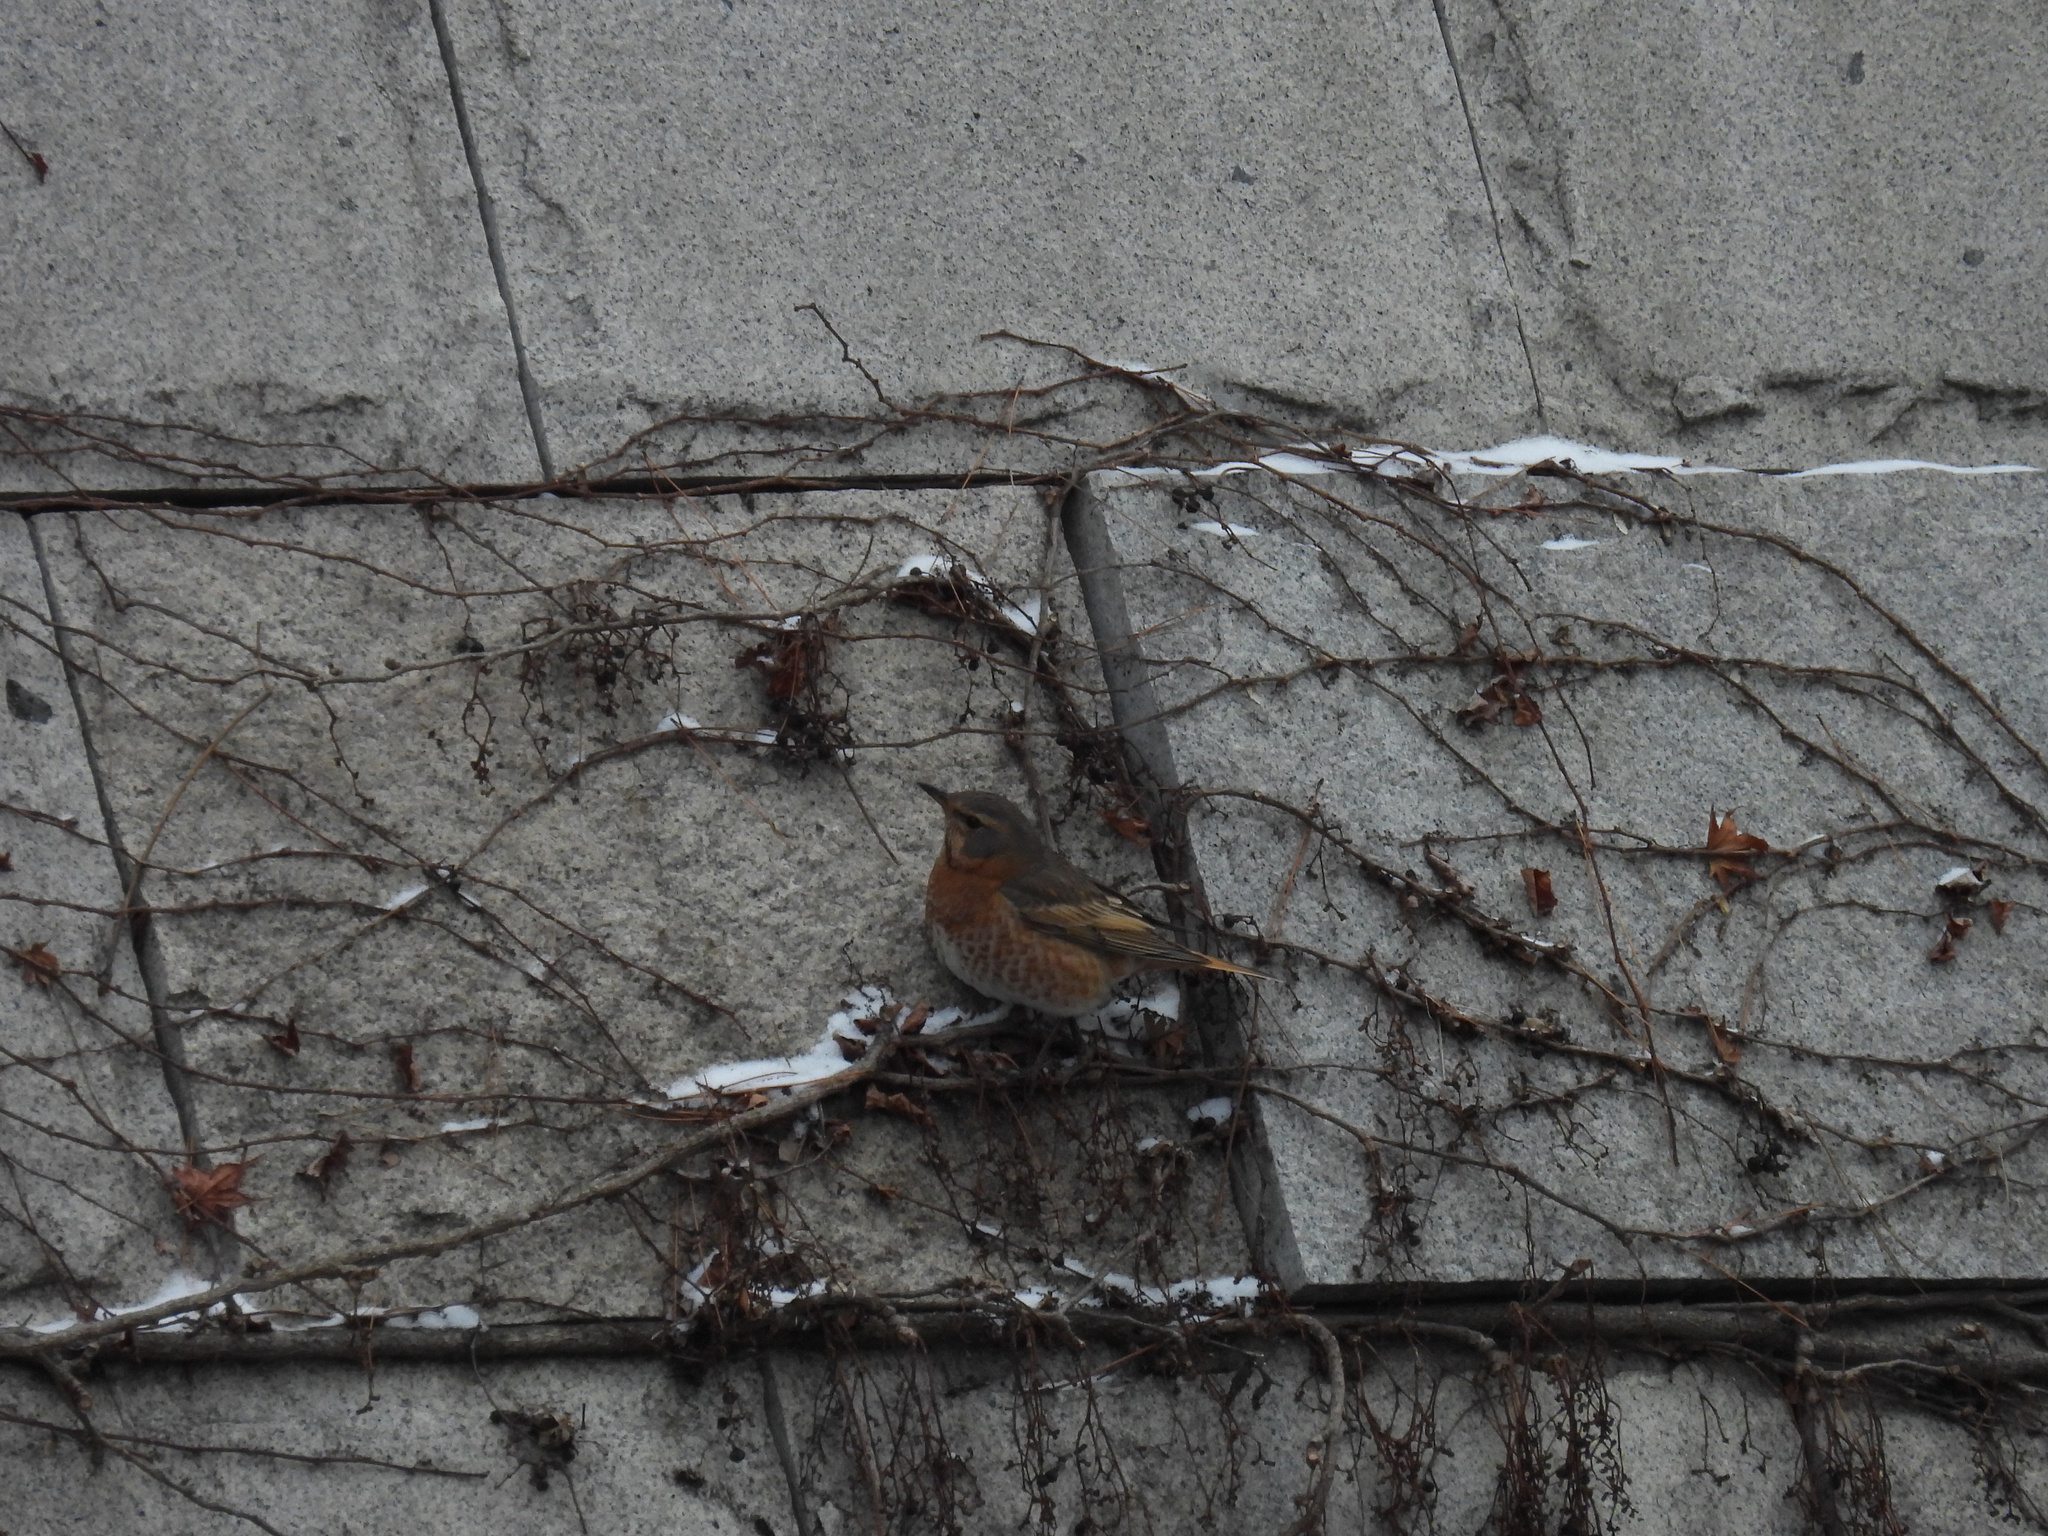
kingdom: Animalia
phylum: Chordata
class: Aves
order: Passeriformes
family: Turdidae
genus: Turdus
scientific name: Turdus naumanni
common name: Naumann's thrush
